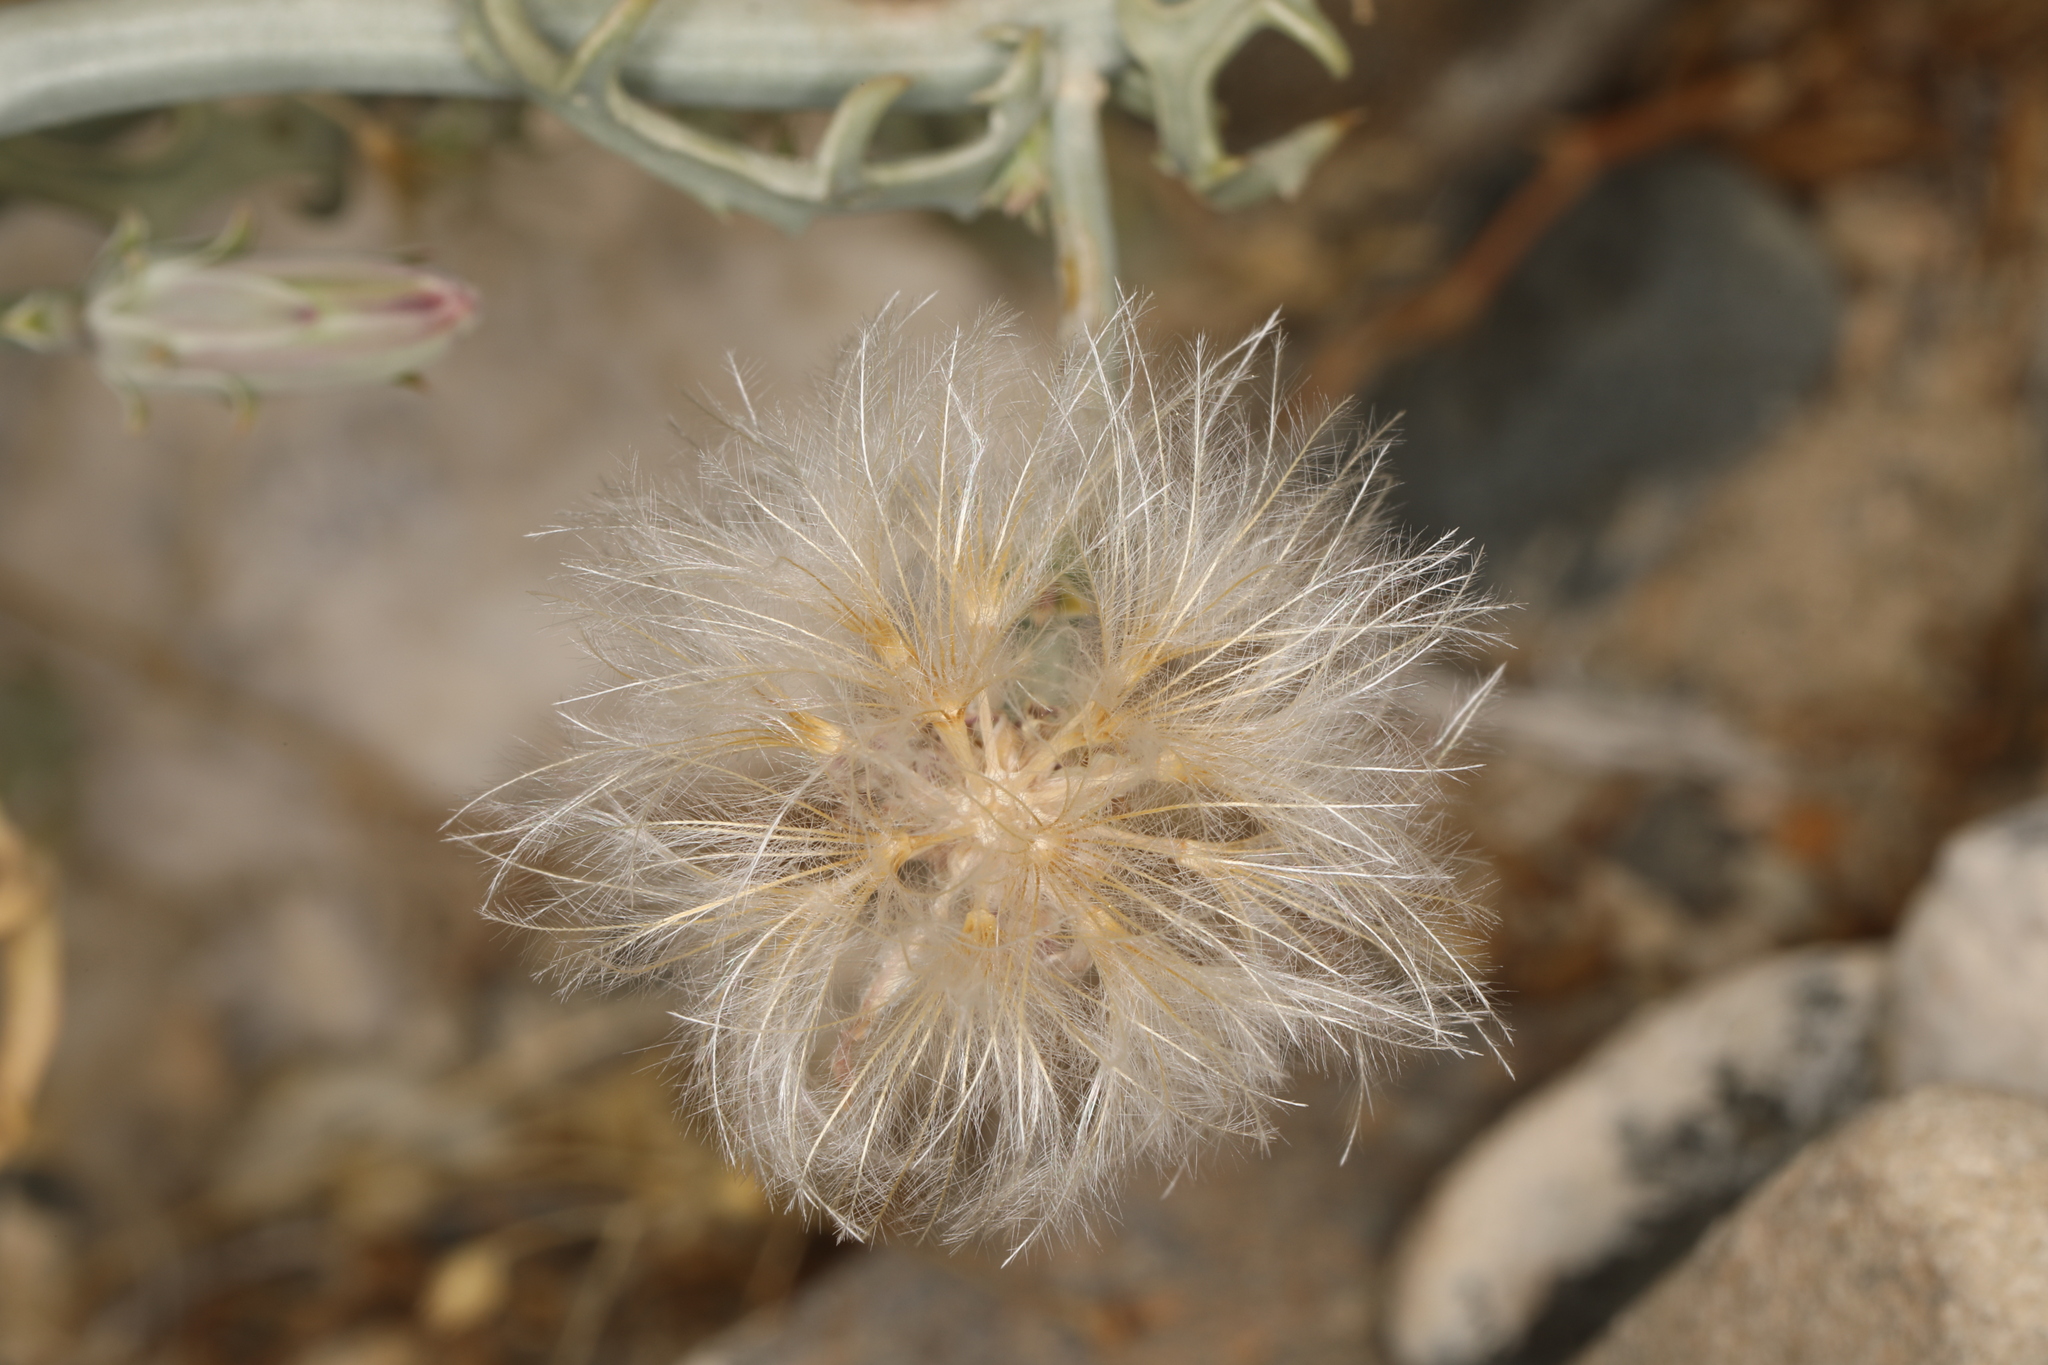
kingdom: Plantae
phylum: Tracheophyta
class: Magnoliopsida
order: Asterales
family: Asteraceae
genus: Stephanomeria
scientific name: Stephanomeria parryi
